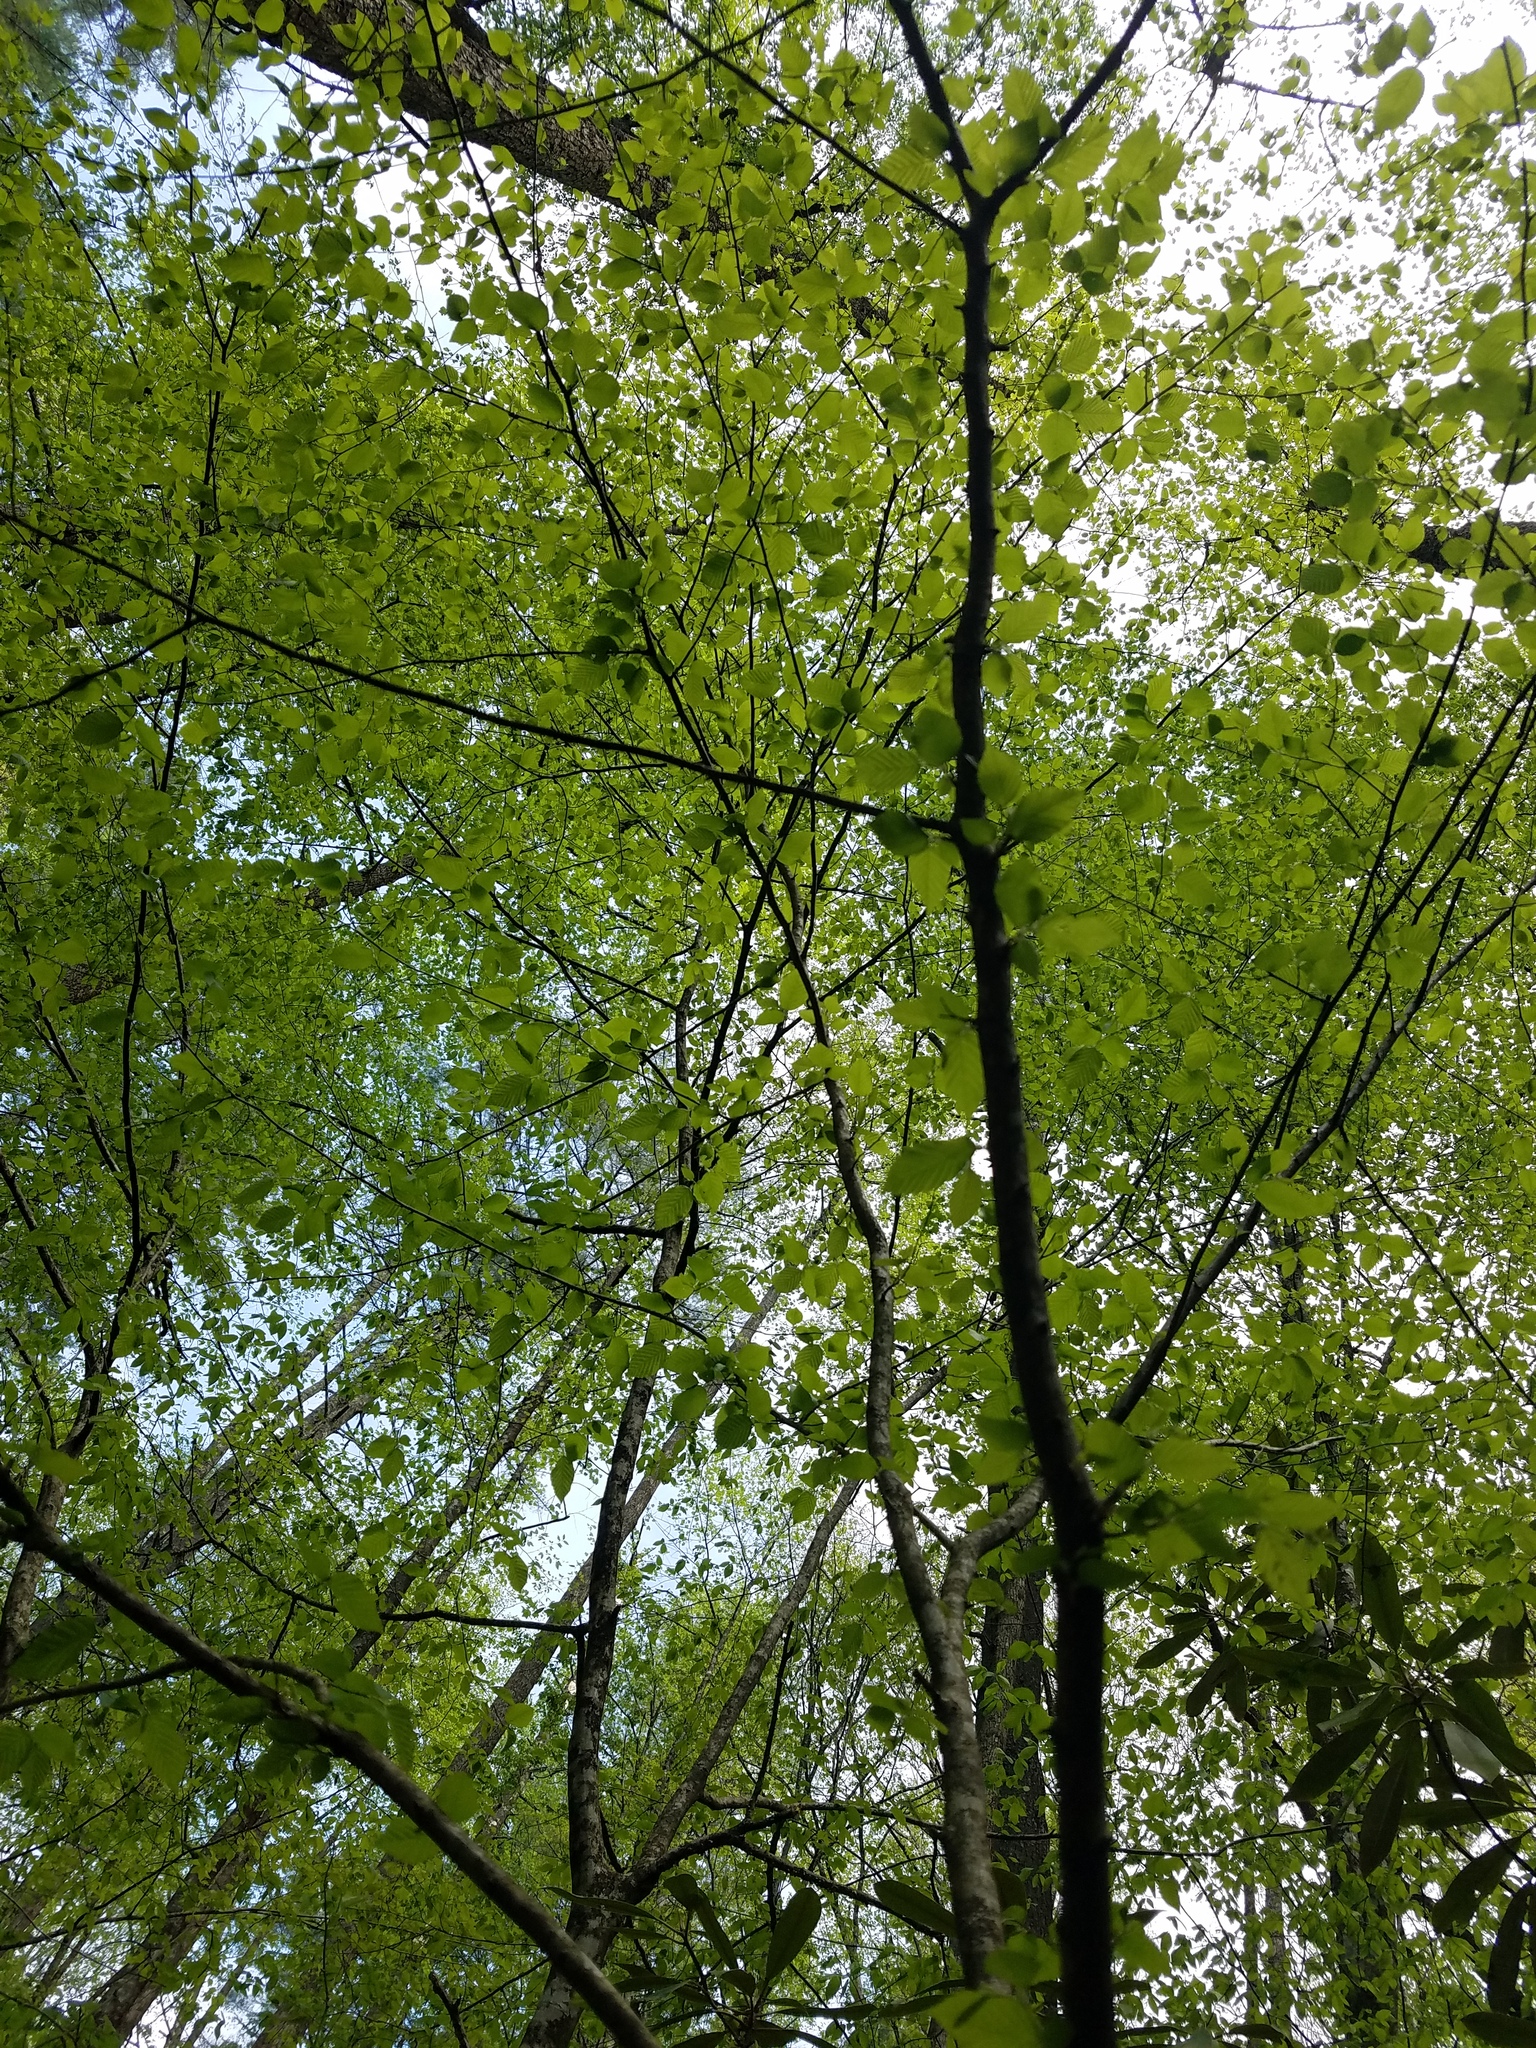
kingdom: Plantae
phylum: Tracheophyta
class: Magnoliopsida
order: Fagales
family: Betulaceae
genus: Carpinus
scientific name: Carpinus caroliniana
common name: American hornbeam
